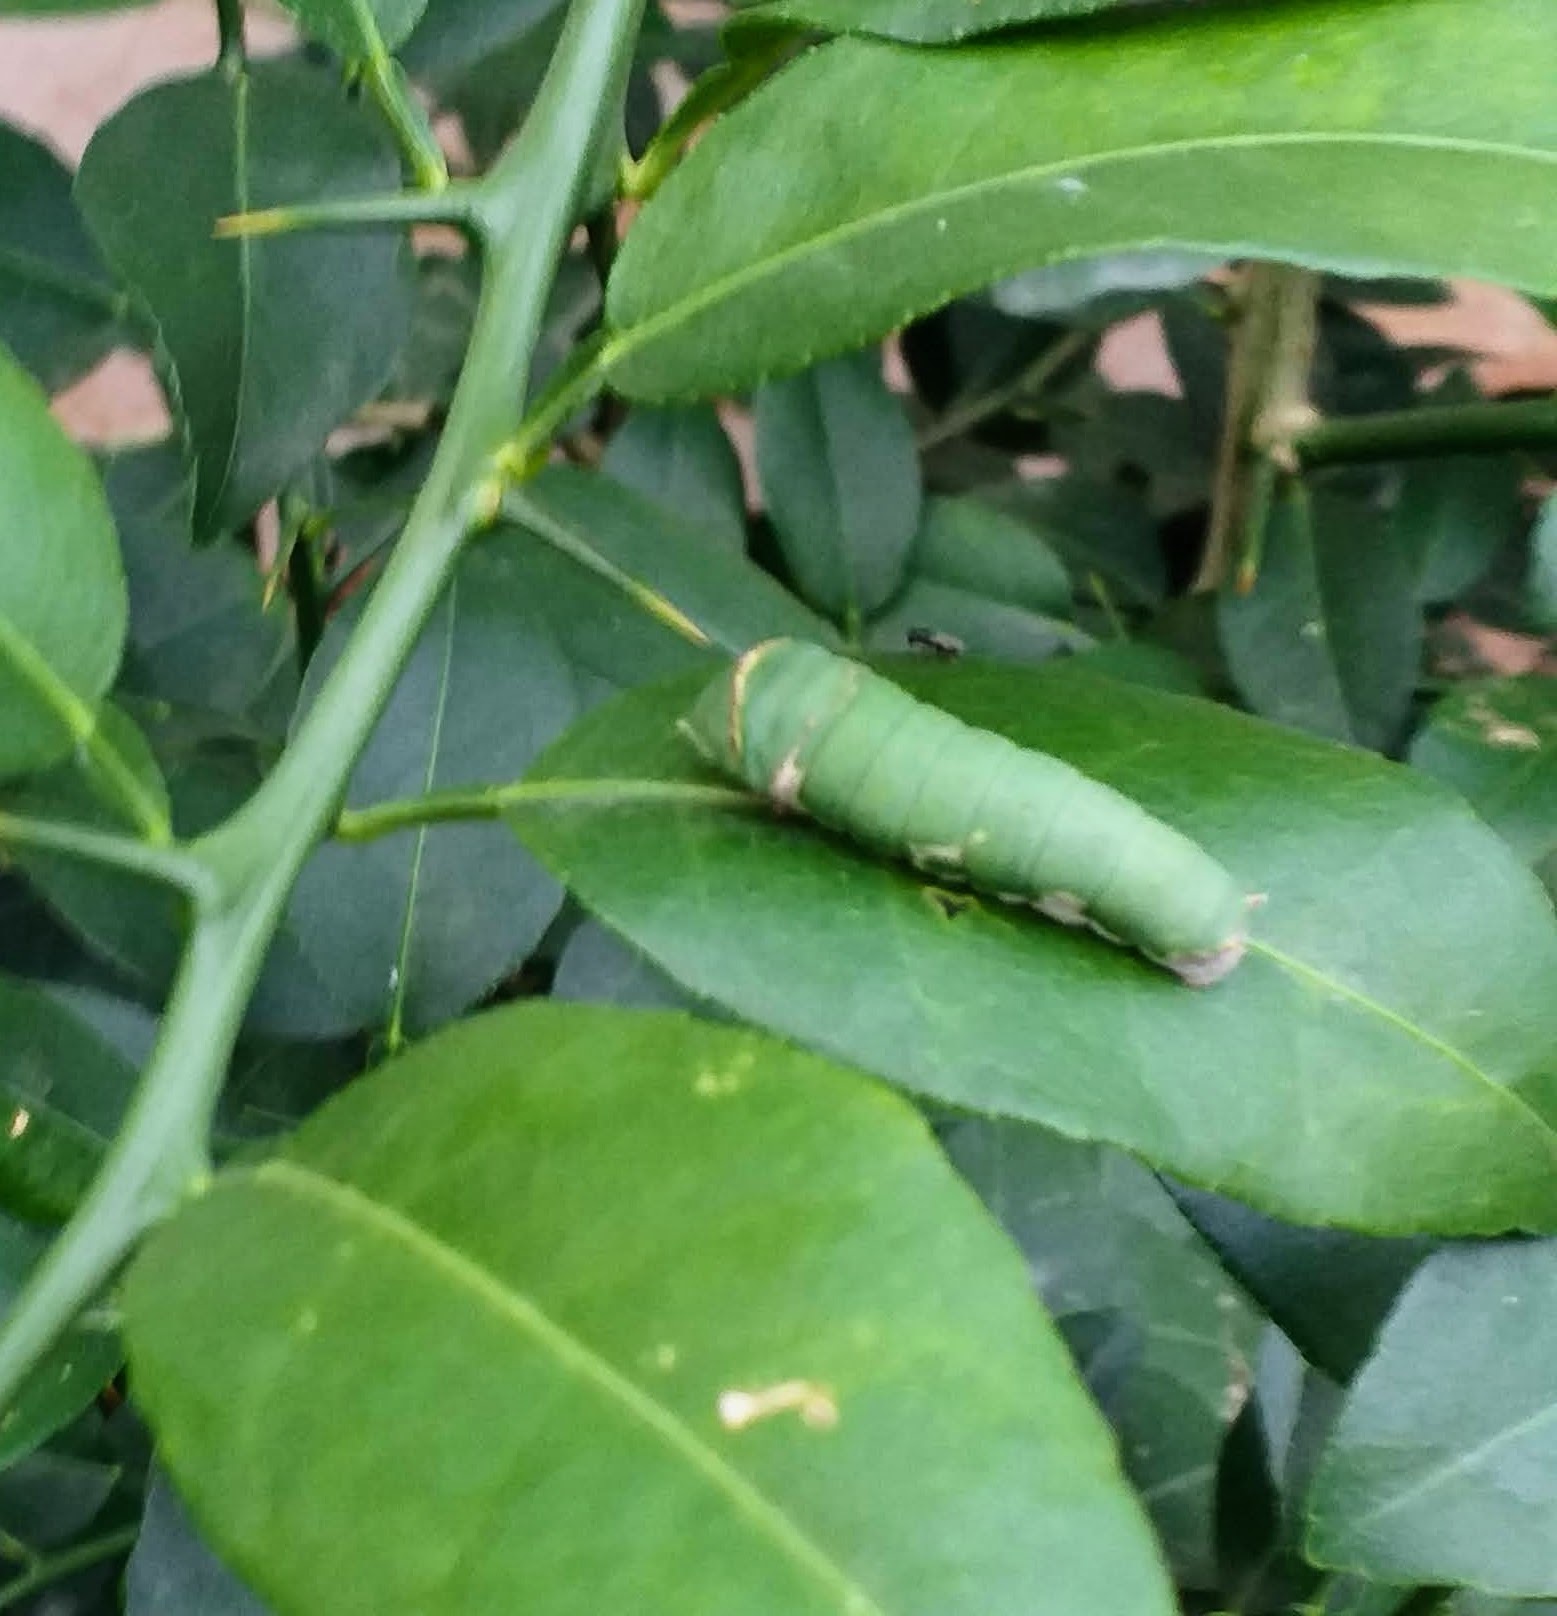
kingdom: Animalia
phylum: Arthropoda
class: Insecta
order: Lepidoptera
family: Papilionidae
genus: Papilio
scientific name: Papilio polytes
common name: Common mormon
